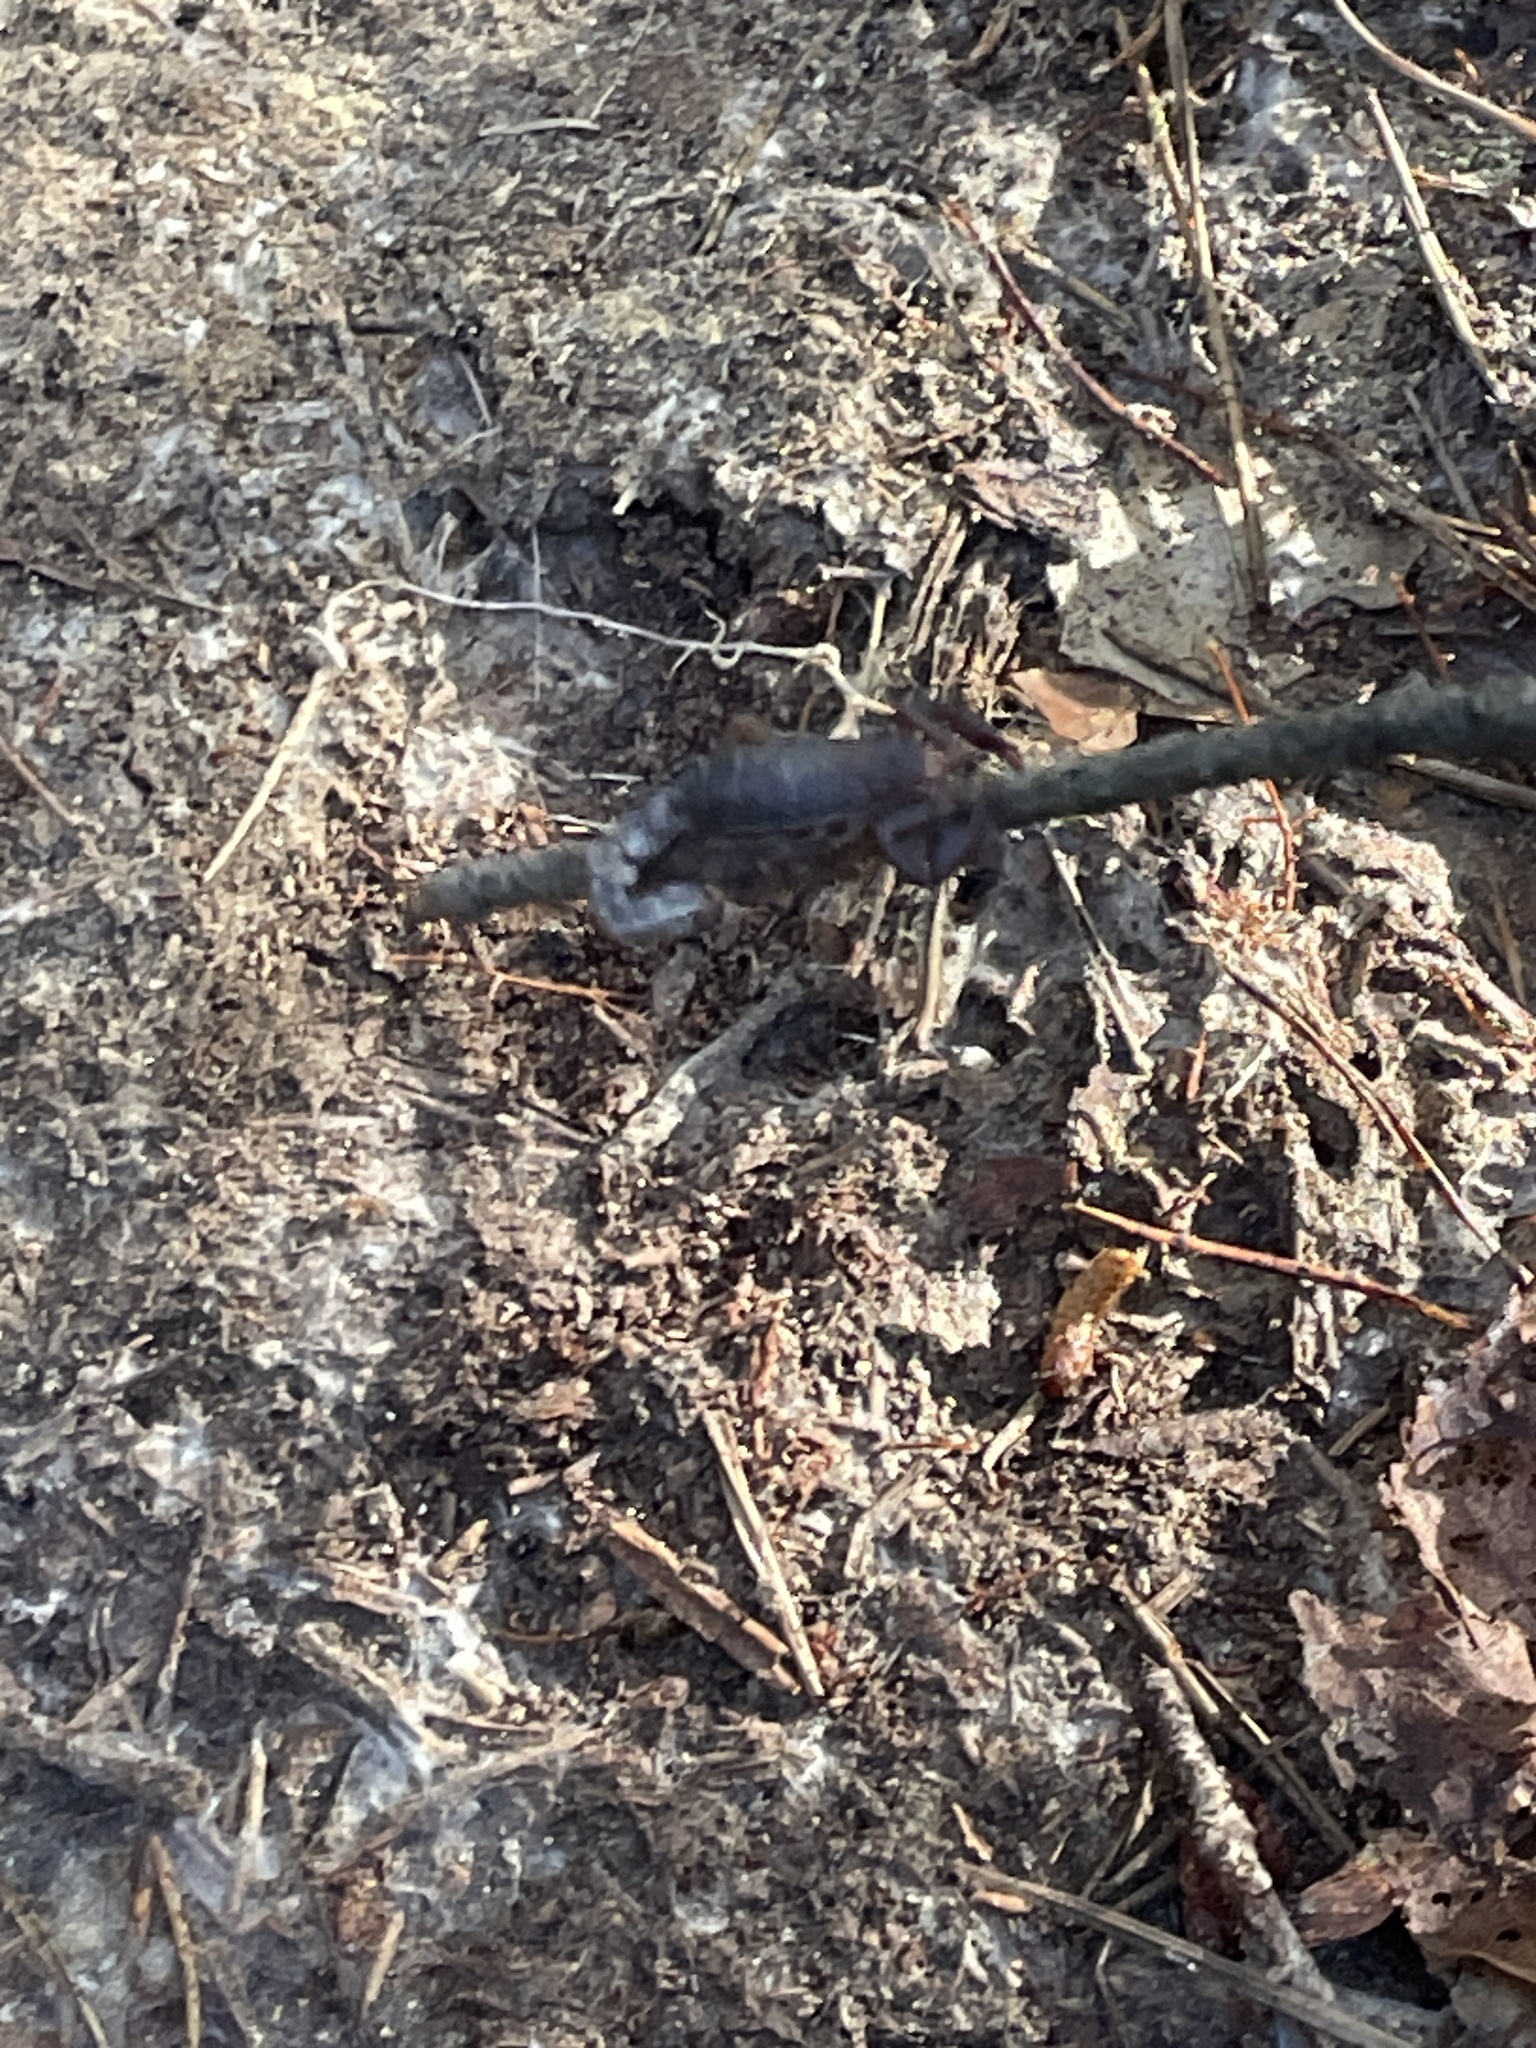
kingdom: Animalia
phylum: Arthropoda
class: Arachnida
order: Scorpiones
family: Vaejovidae
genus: Vaejovis
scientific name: Vaejovis carolinianus
